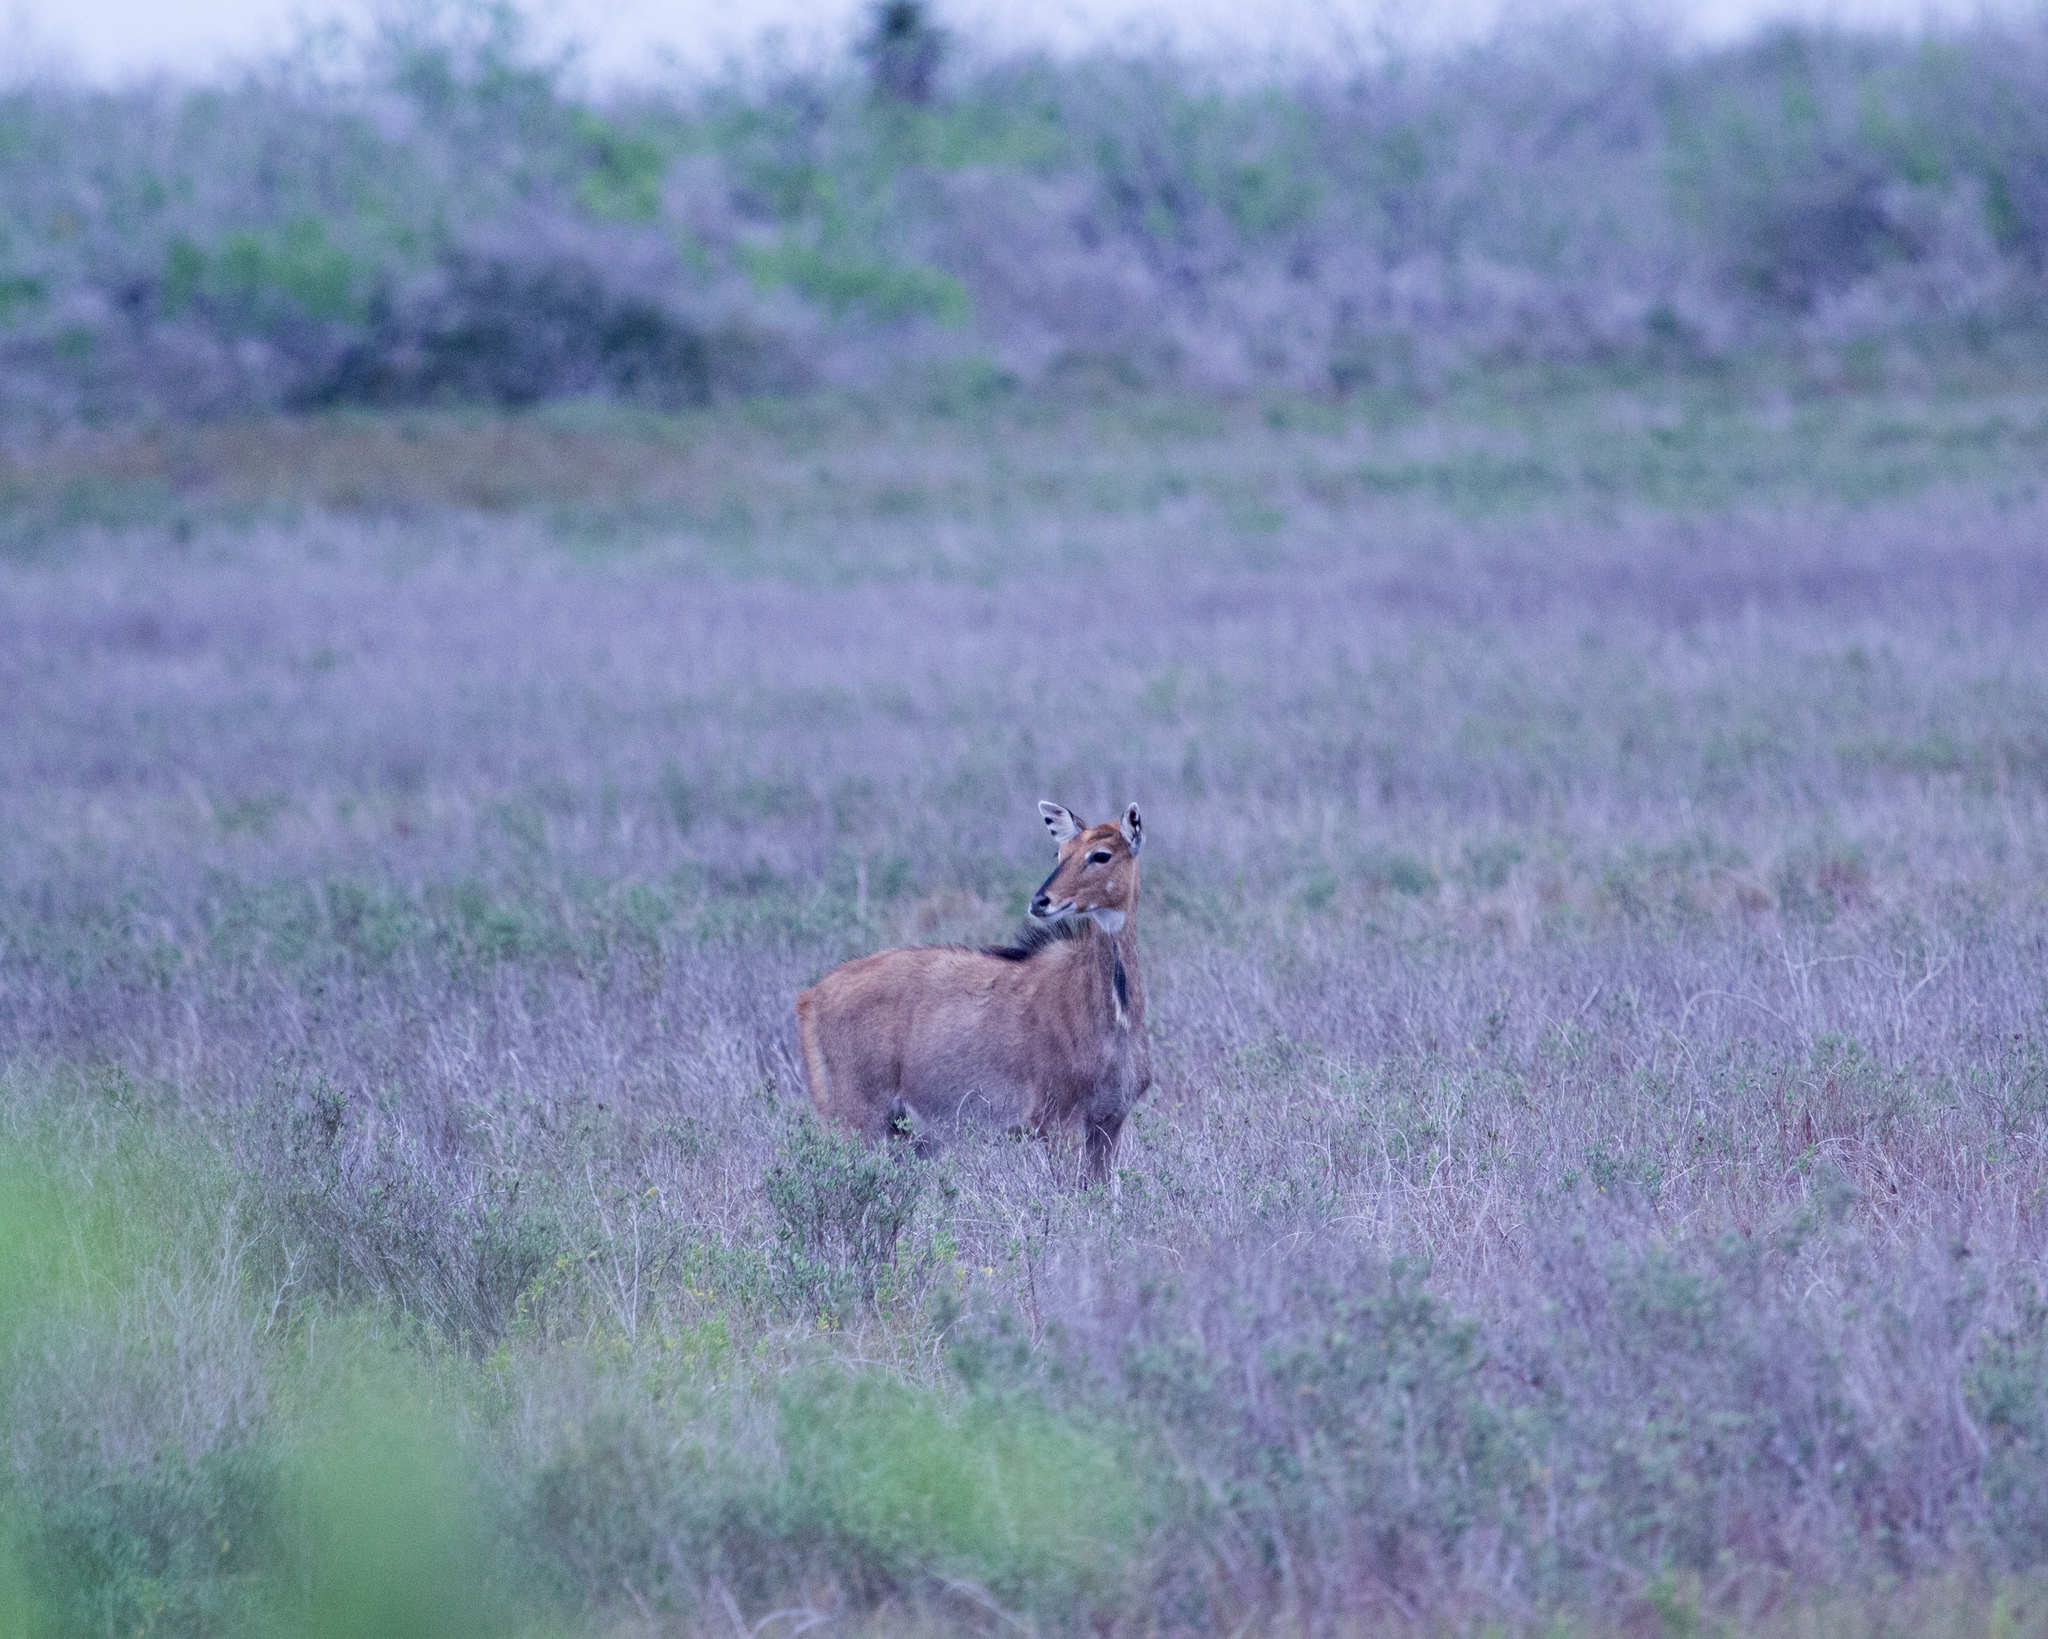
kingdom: Animalia
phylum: Chordata
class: Mammalia
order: Artiodactyla
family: Bovidae
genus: Boselaphus
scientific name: Boselaphus tragocamelus
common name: Nilgai
